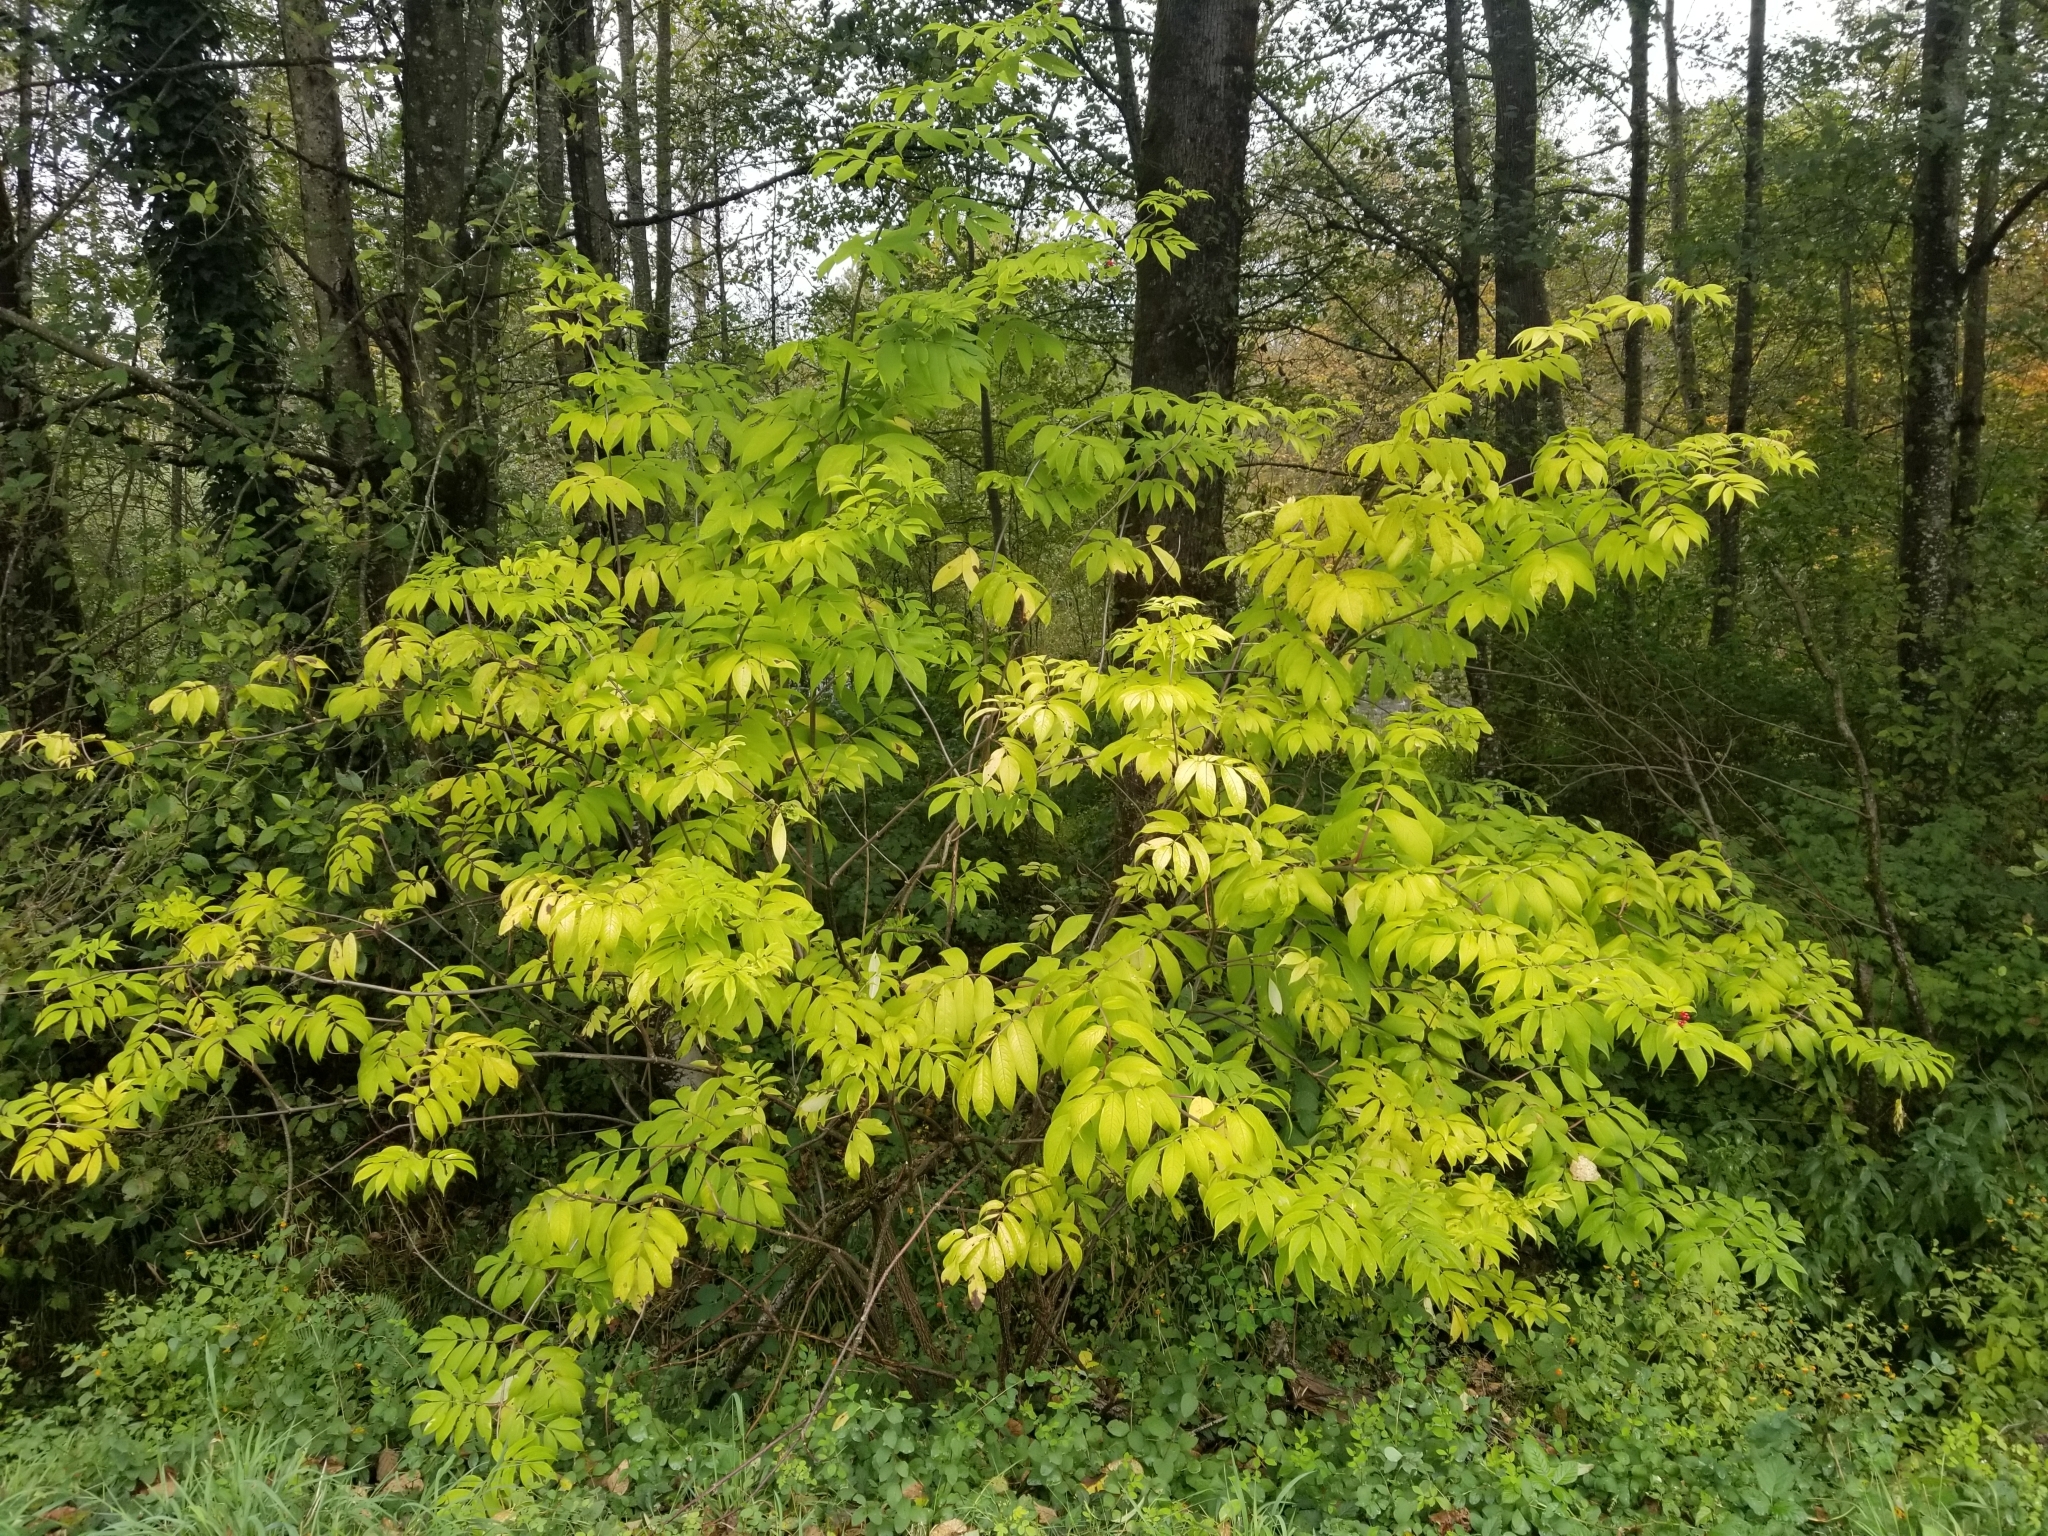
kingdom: Plantae
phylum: Tracheophyta
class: Magnoliopsida
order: Dipsacales
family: Viburnaceae
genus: Sambucus
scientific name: Sambucus racemosa
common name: Red-berried elder
